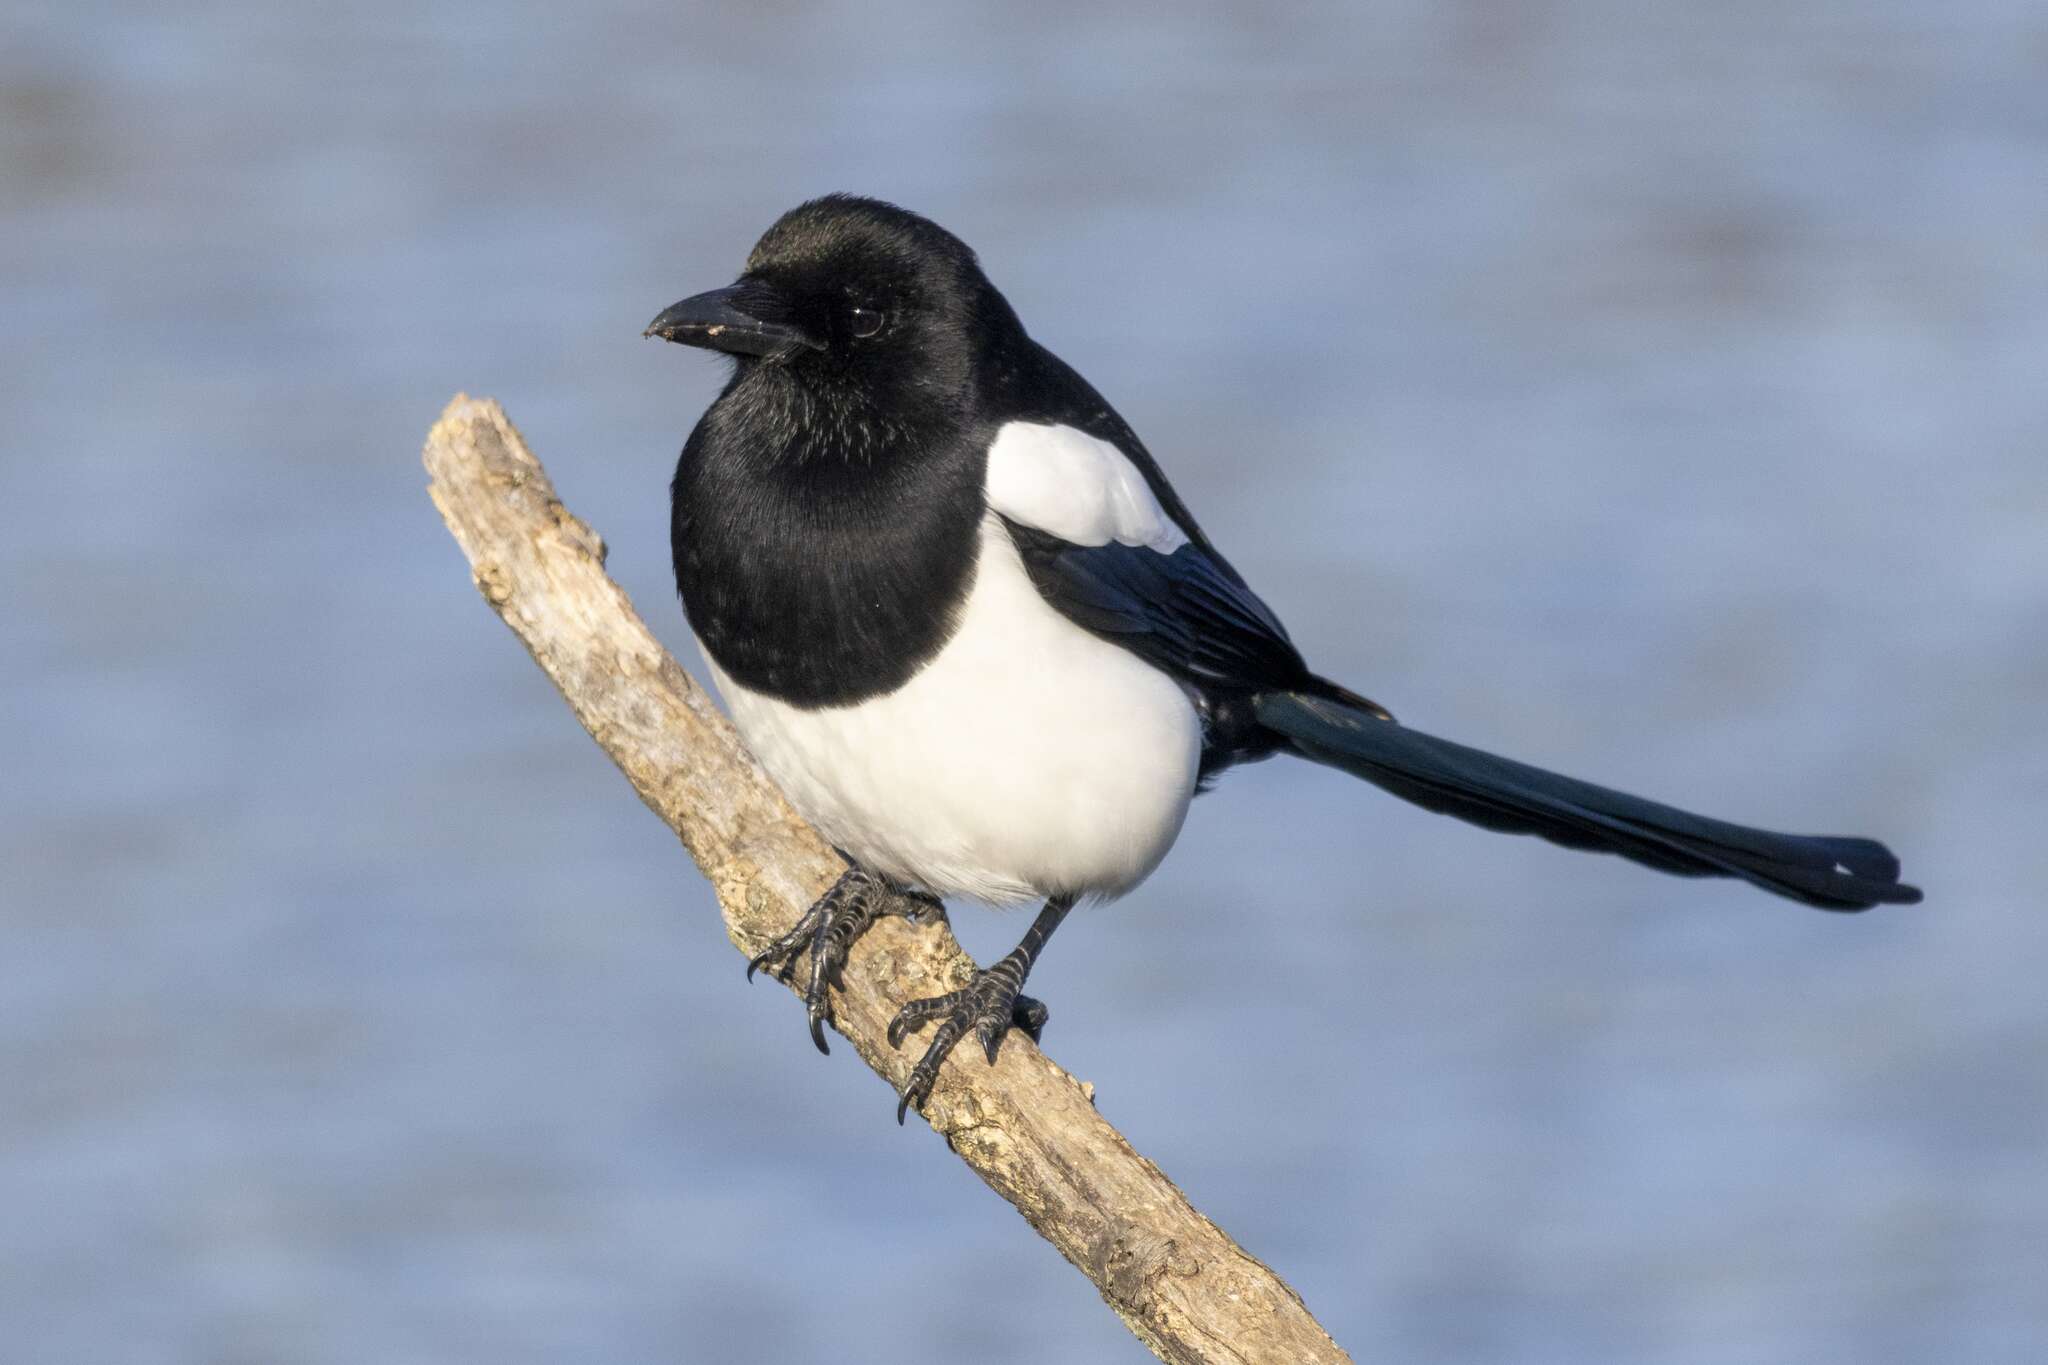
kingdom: Animalia
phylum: Chordata
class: Aves
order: Passeriformes
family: Corvidae
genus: Pica
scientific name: Pica pica
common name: Eurasian magpie
